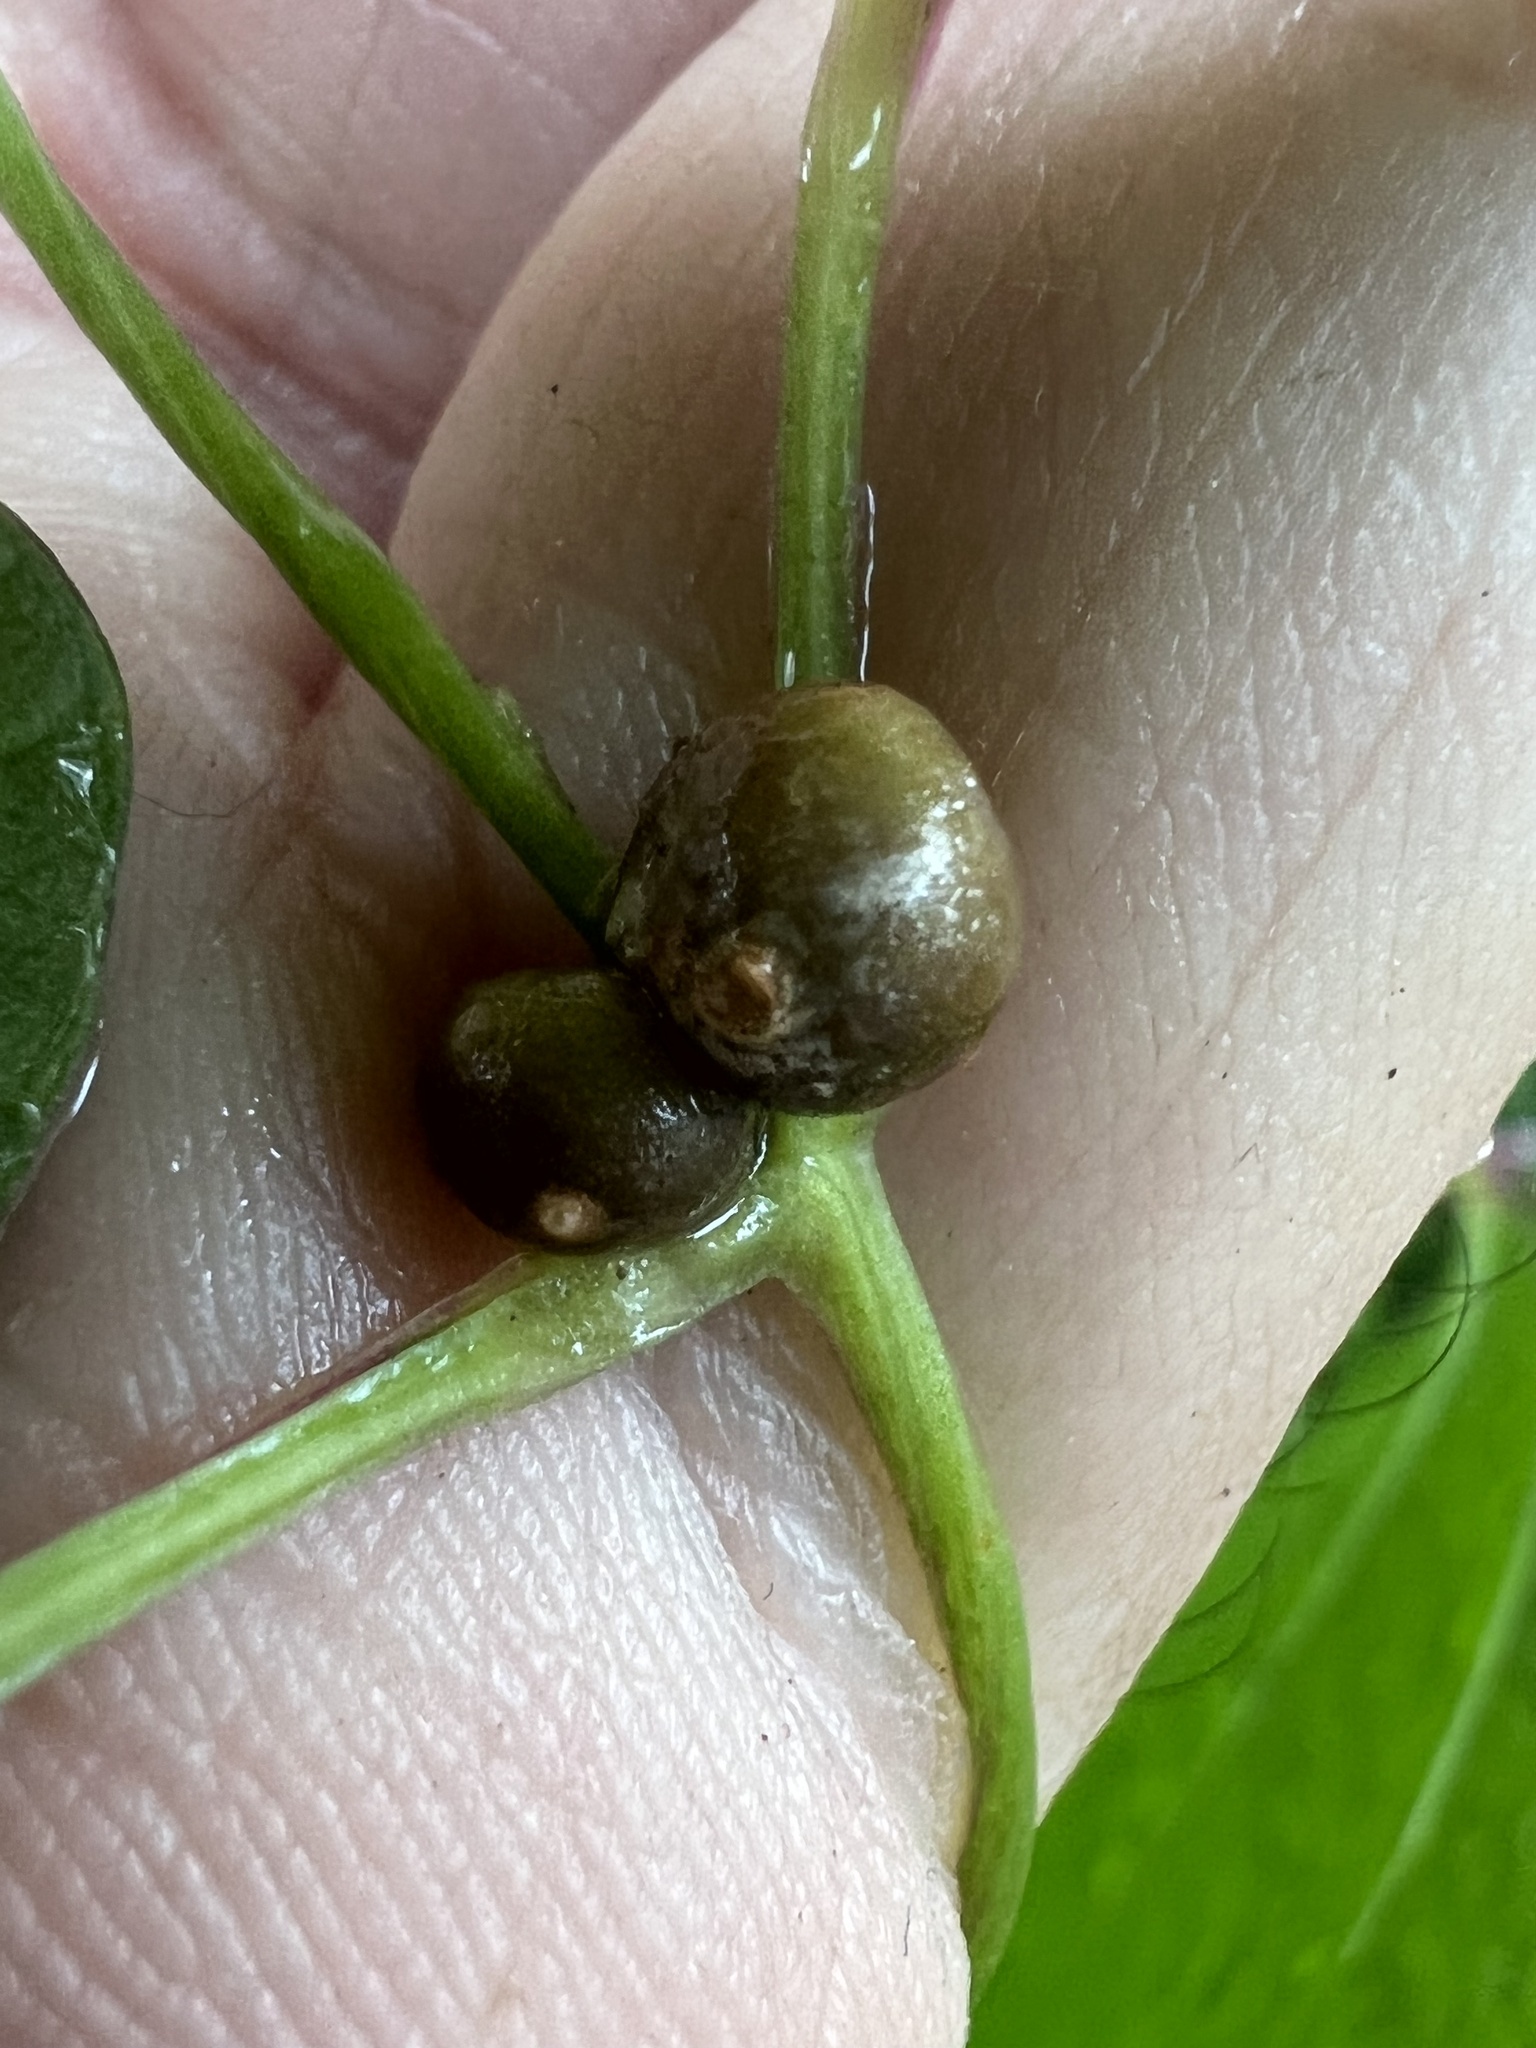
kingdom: Plantae
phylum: Tracheophyta
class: Liliopsida
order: Dioscoreales
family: Dioscoreaceae
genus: Dioscorea
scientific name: Dioscorea polystachya
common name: Chinese yam
